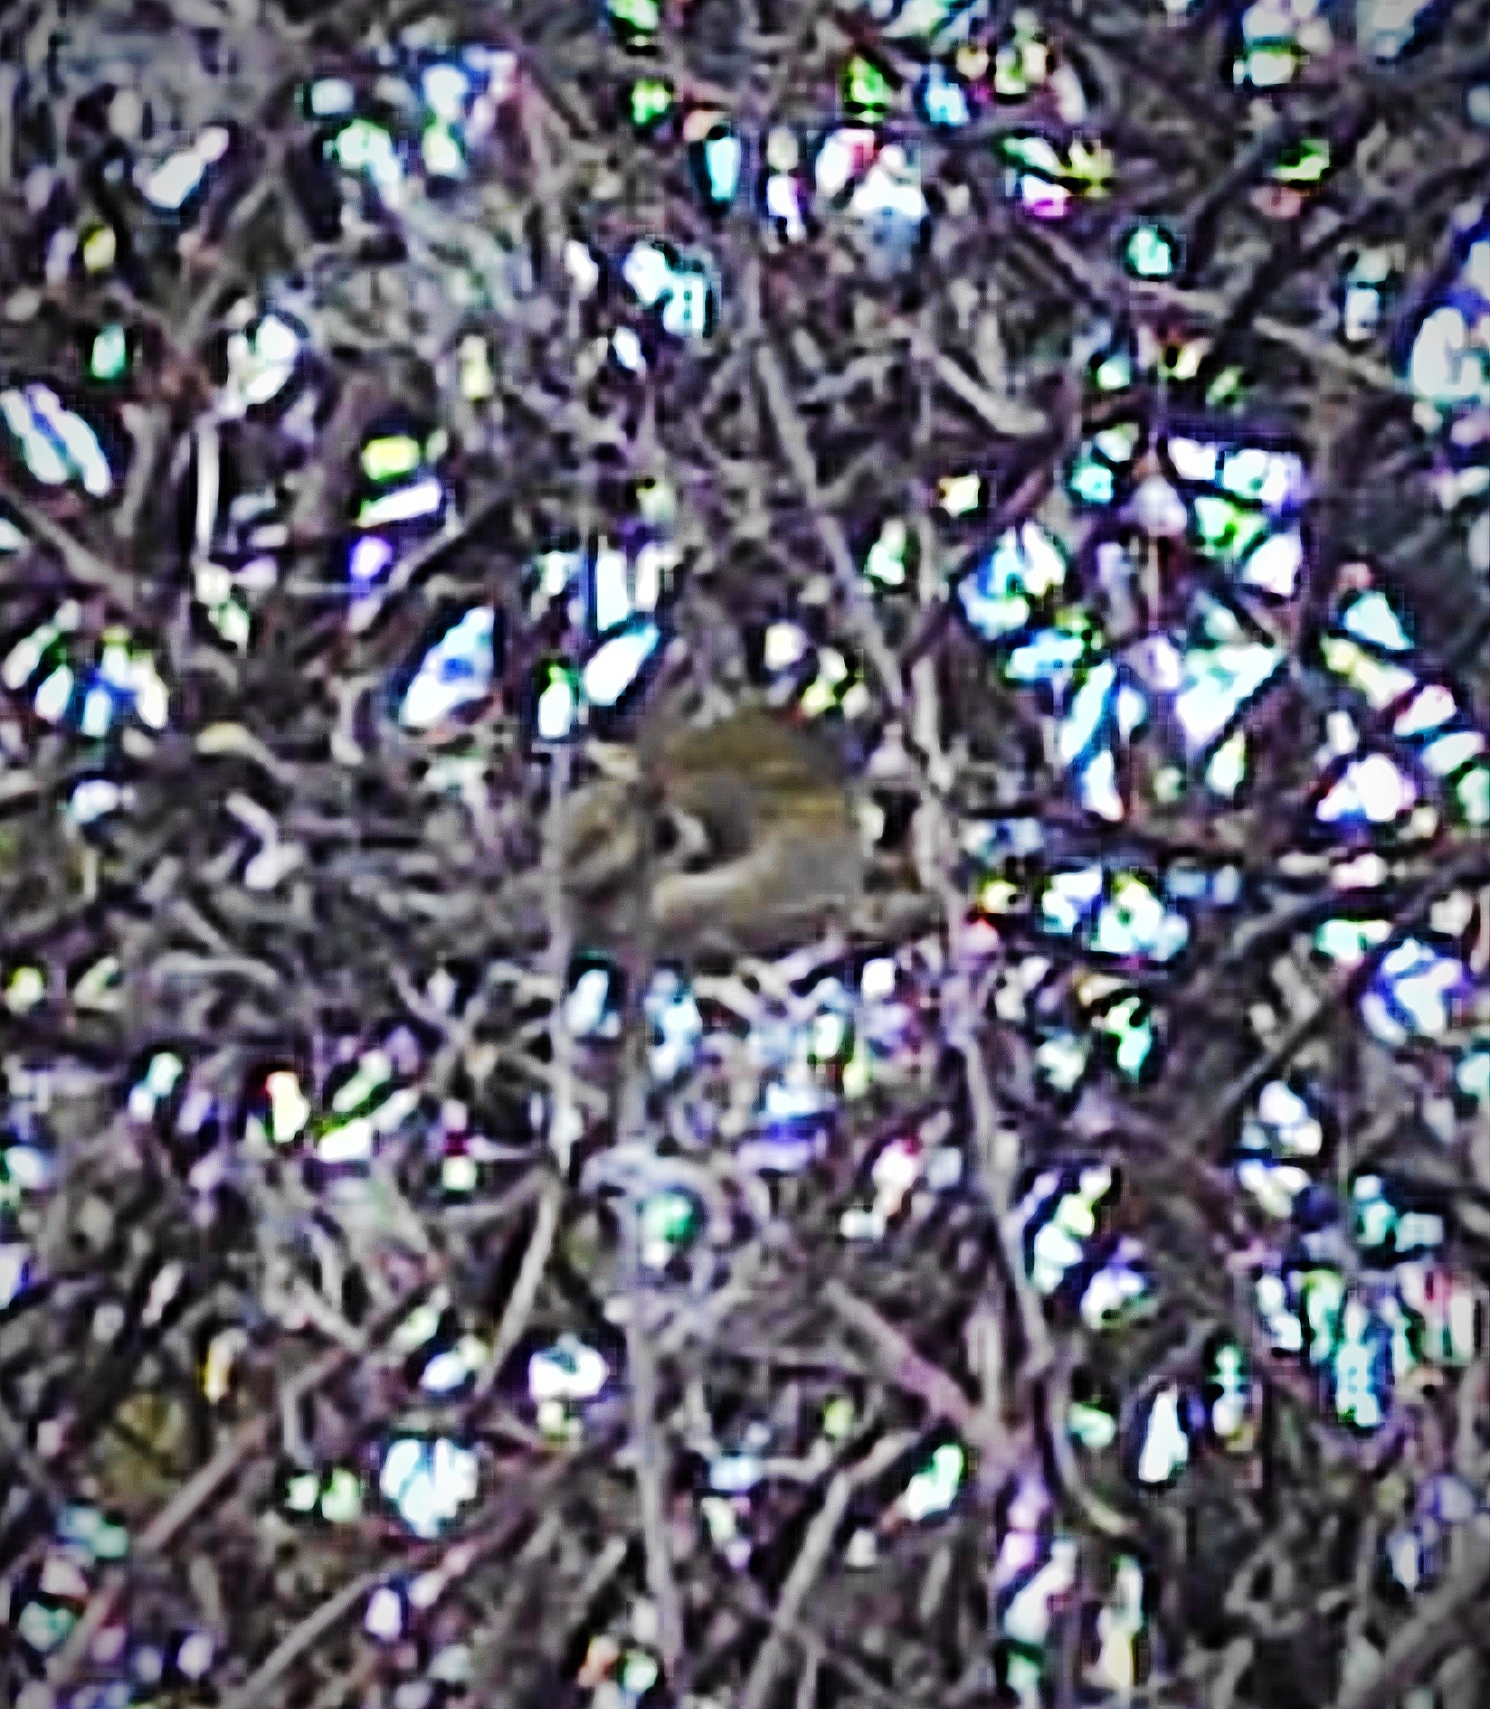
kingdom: Animalia
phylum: Chordata
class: Aves
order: Passeriformes
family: Regulidae
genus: Regulus
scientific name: Regulus regulus
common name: Goldcrest
